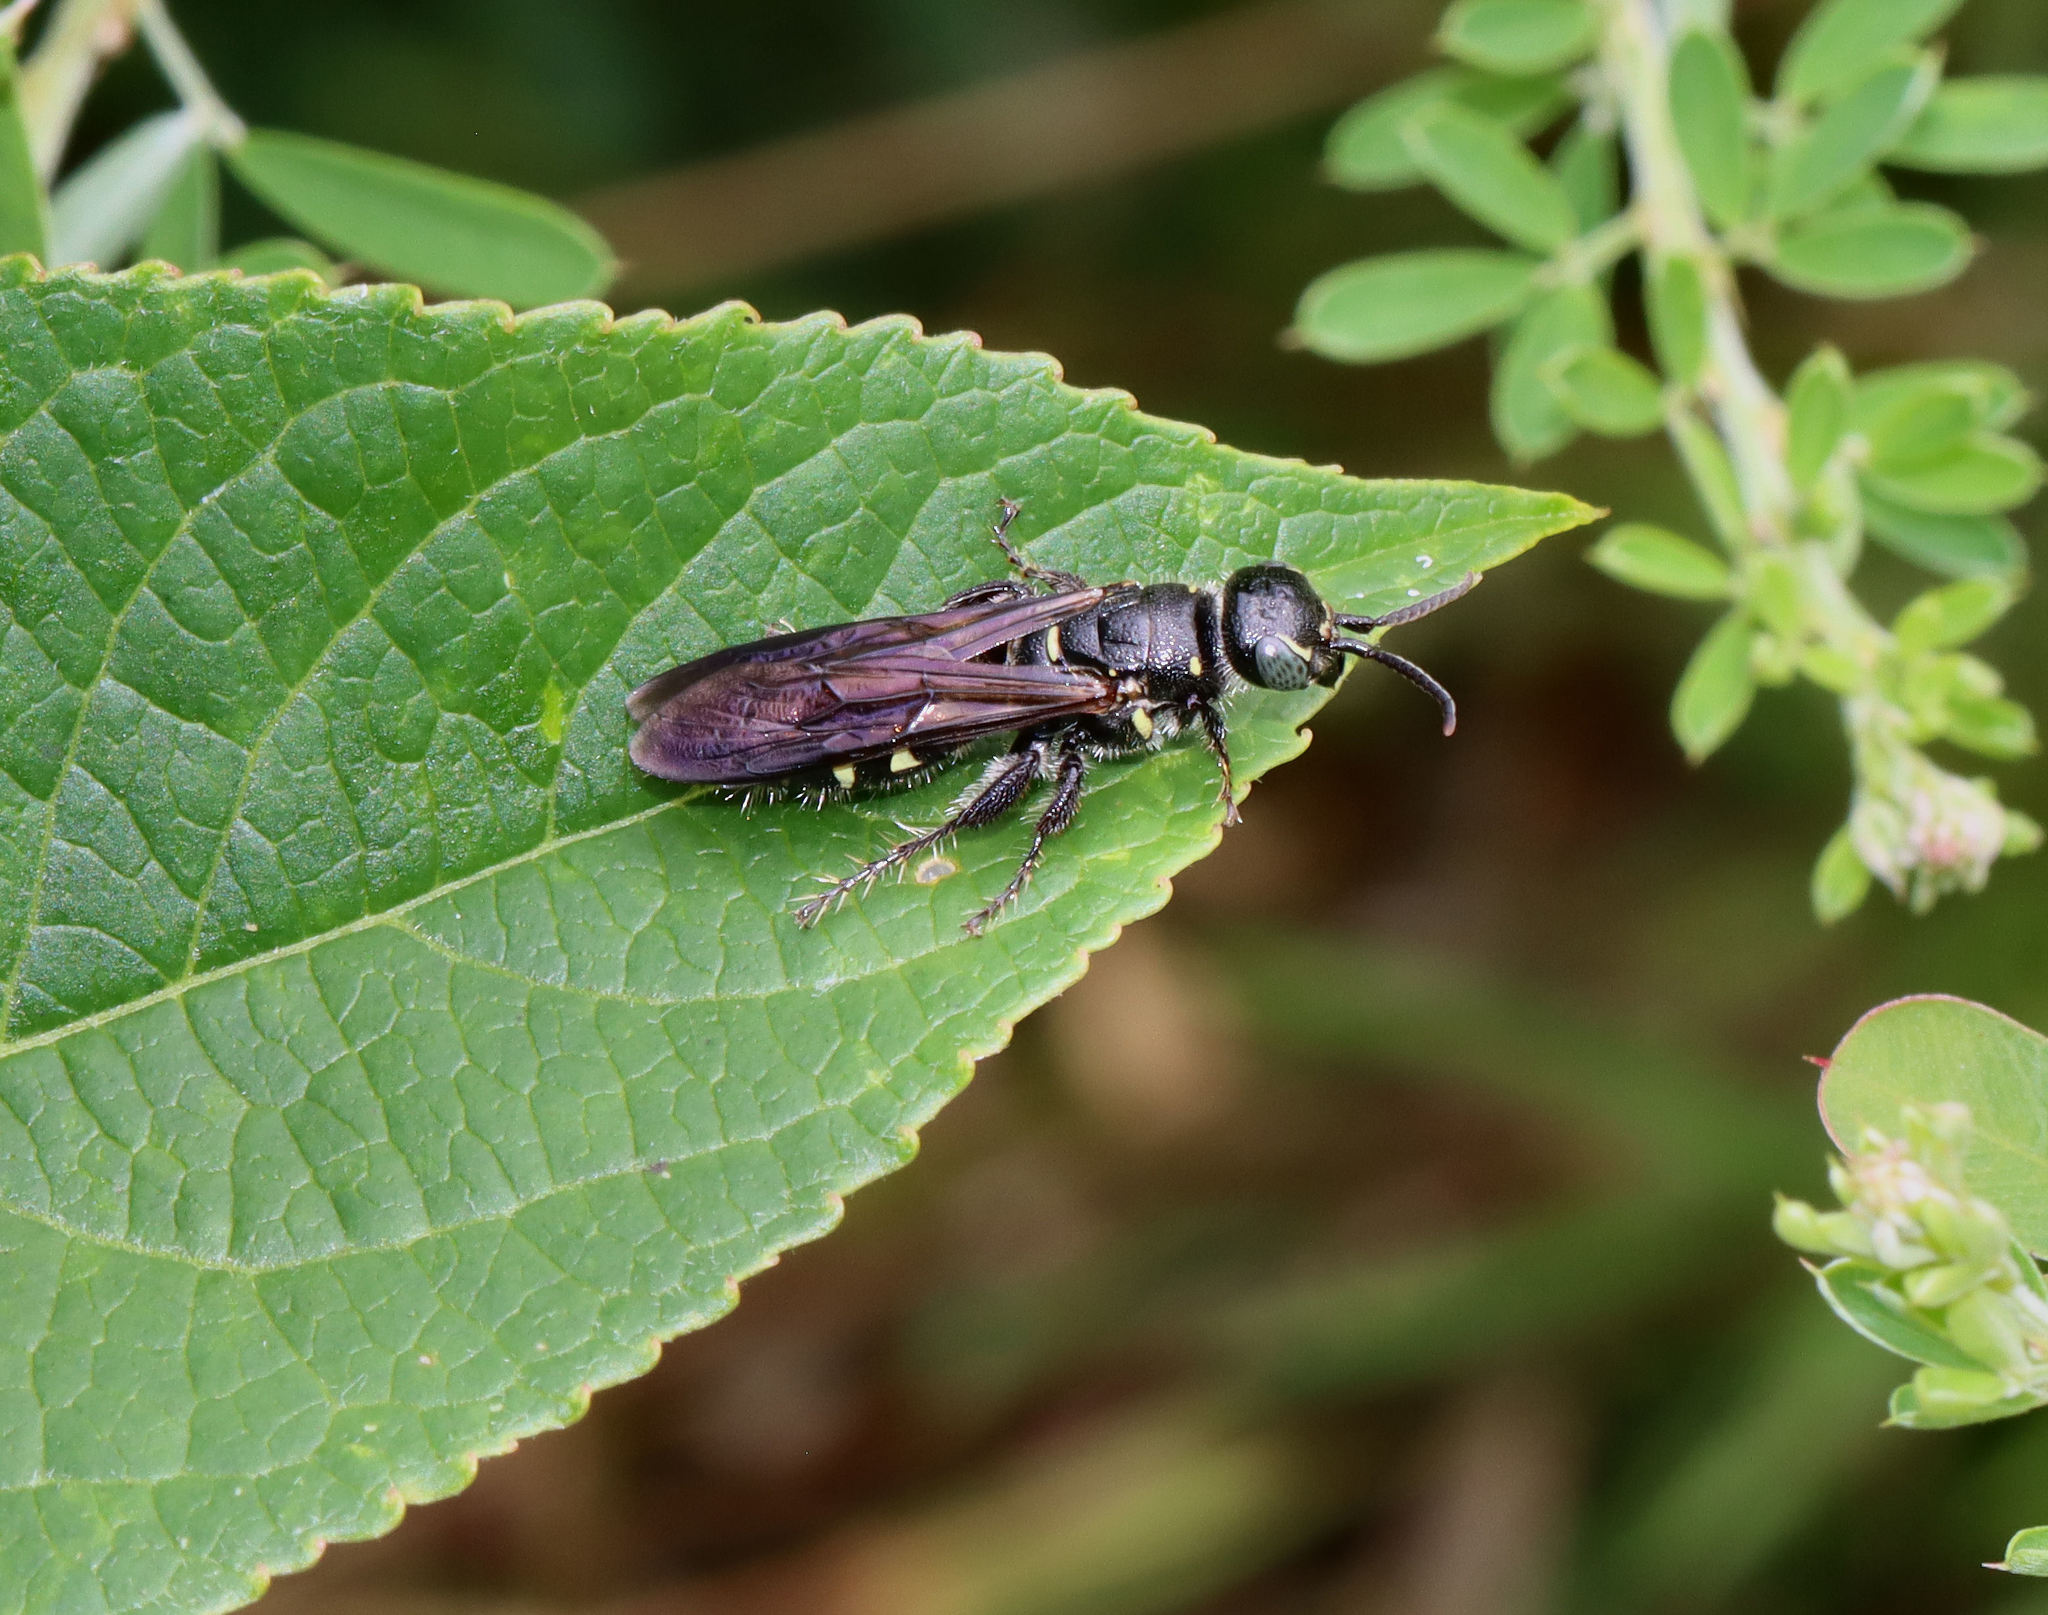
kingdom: Animalia
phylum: Arthropoda
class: Insecta
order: Hymenoptera
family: Tiphiidae
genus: Myzinum
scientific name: Myzinum obscurum
